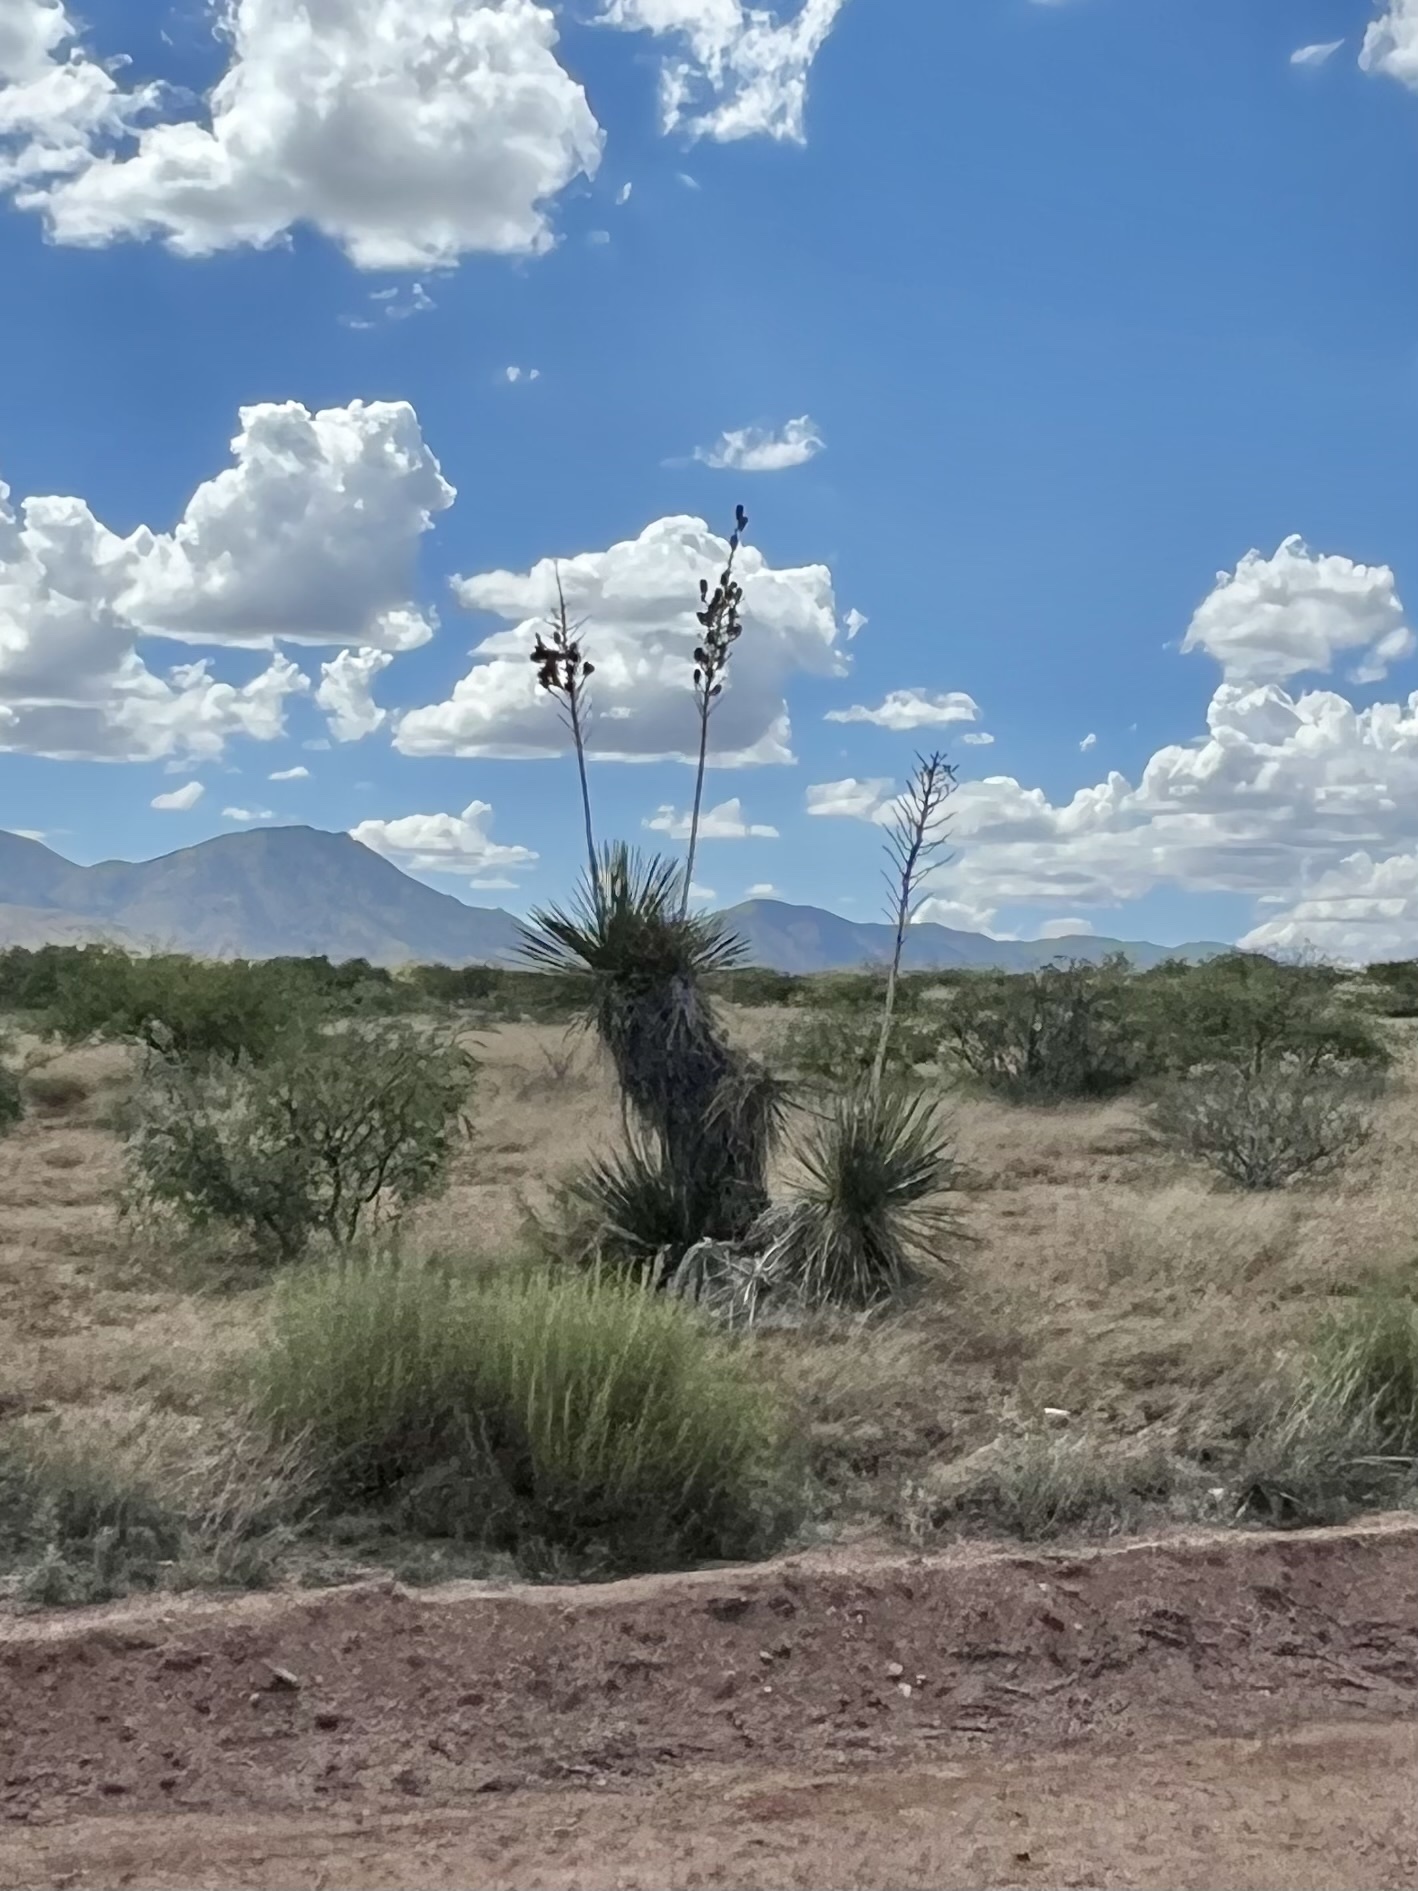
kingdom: Plantae
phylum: Tracheophyta
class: Liliopsida
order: Asparagales
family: Asparagaceae
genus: Yucca
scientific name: Yucca elata
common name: Palmella
